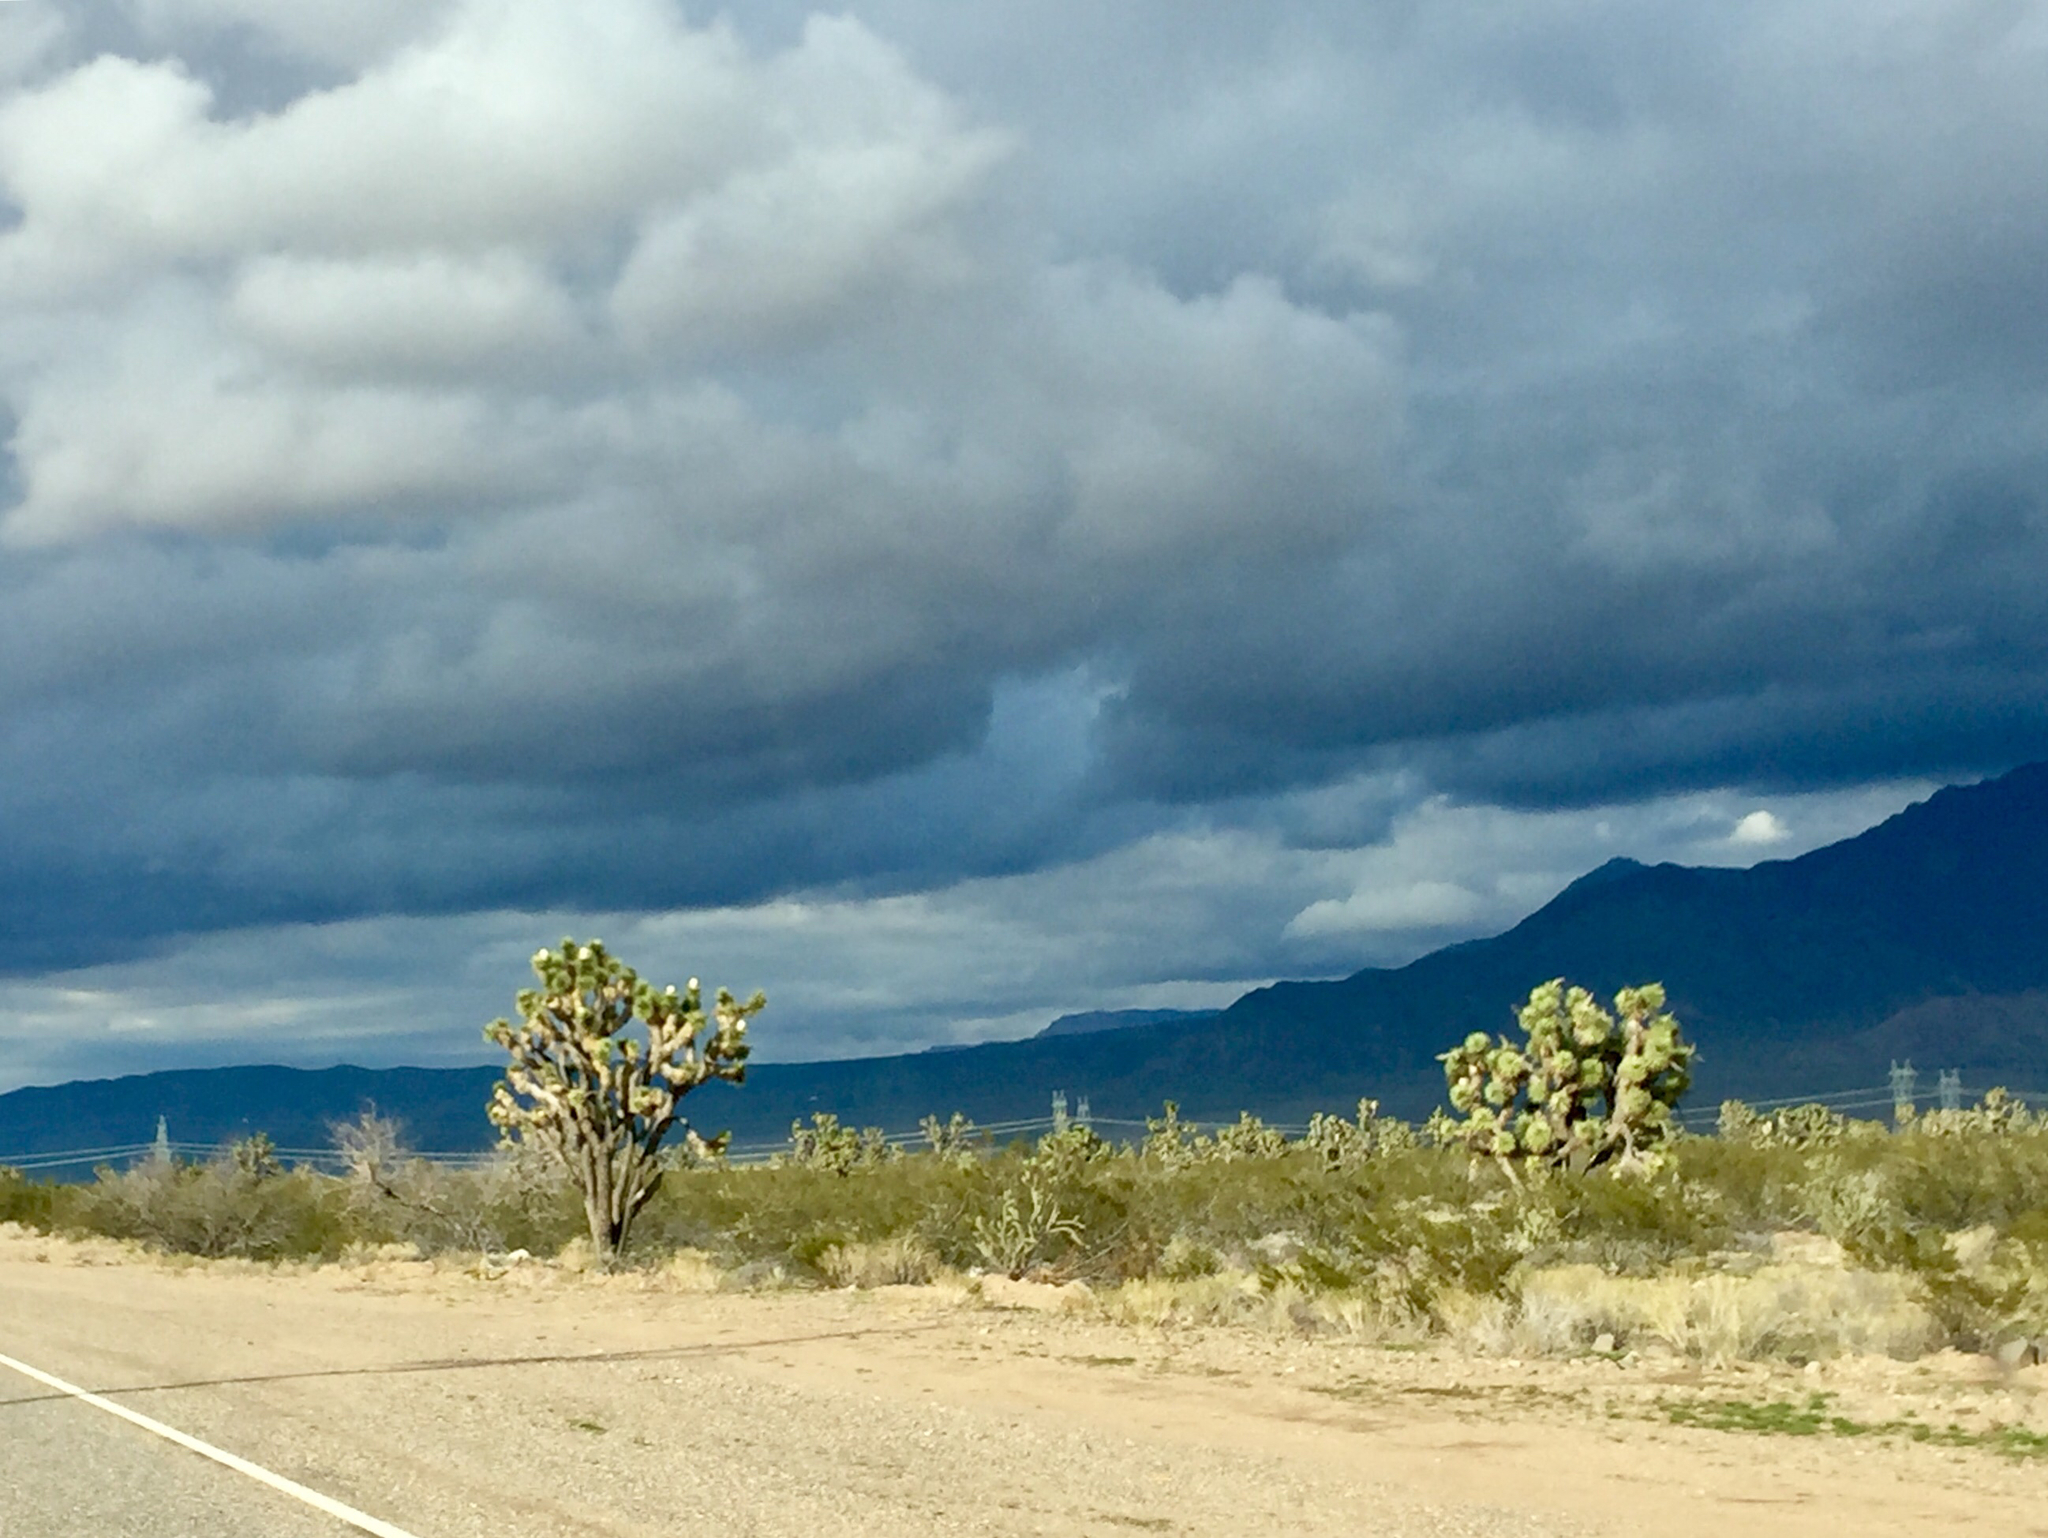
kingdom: Plantae
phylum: Tracheophyta
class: Liliopsida
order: Asparagales
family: Asparagaceae
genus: Yucca
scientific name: Yucca brevifolia
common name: Joshua tree
